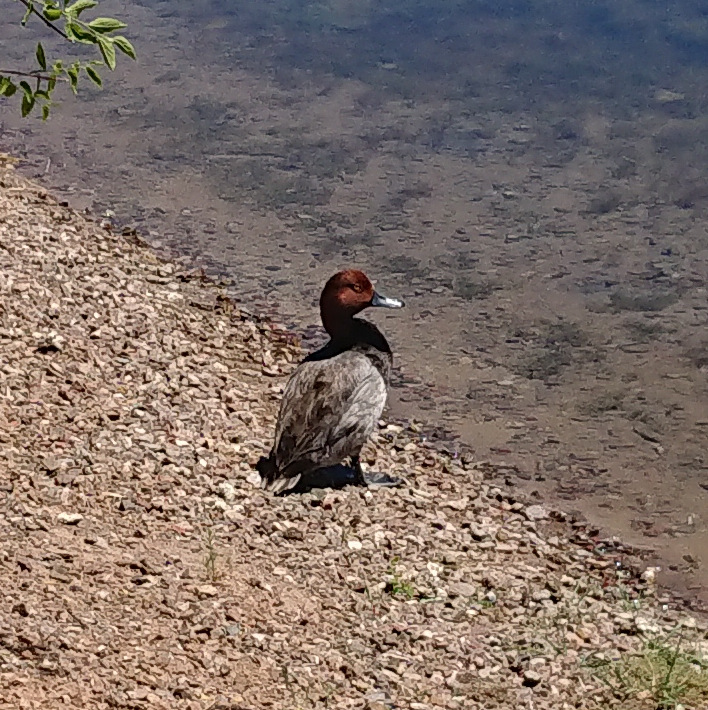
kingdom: Animalia
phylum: Chordata
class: Aves
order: Anseriformes
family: Anatidae
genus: Aythya
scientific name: Aythya americana
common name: Redhead
